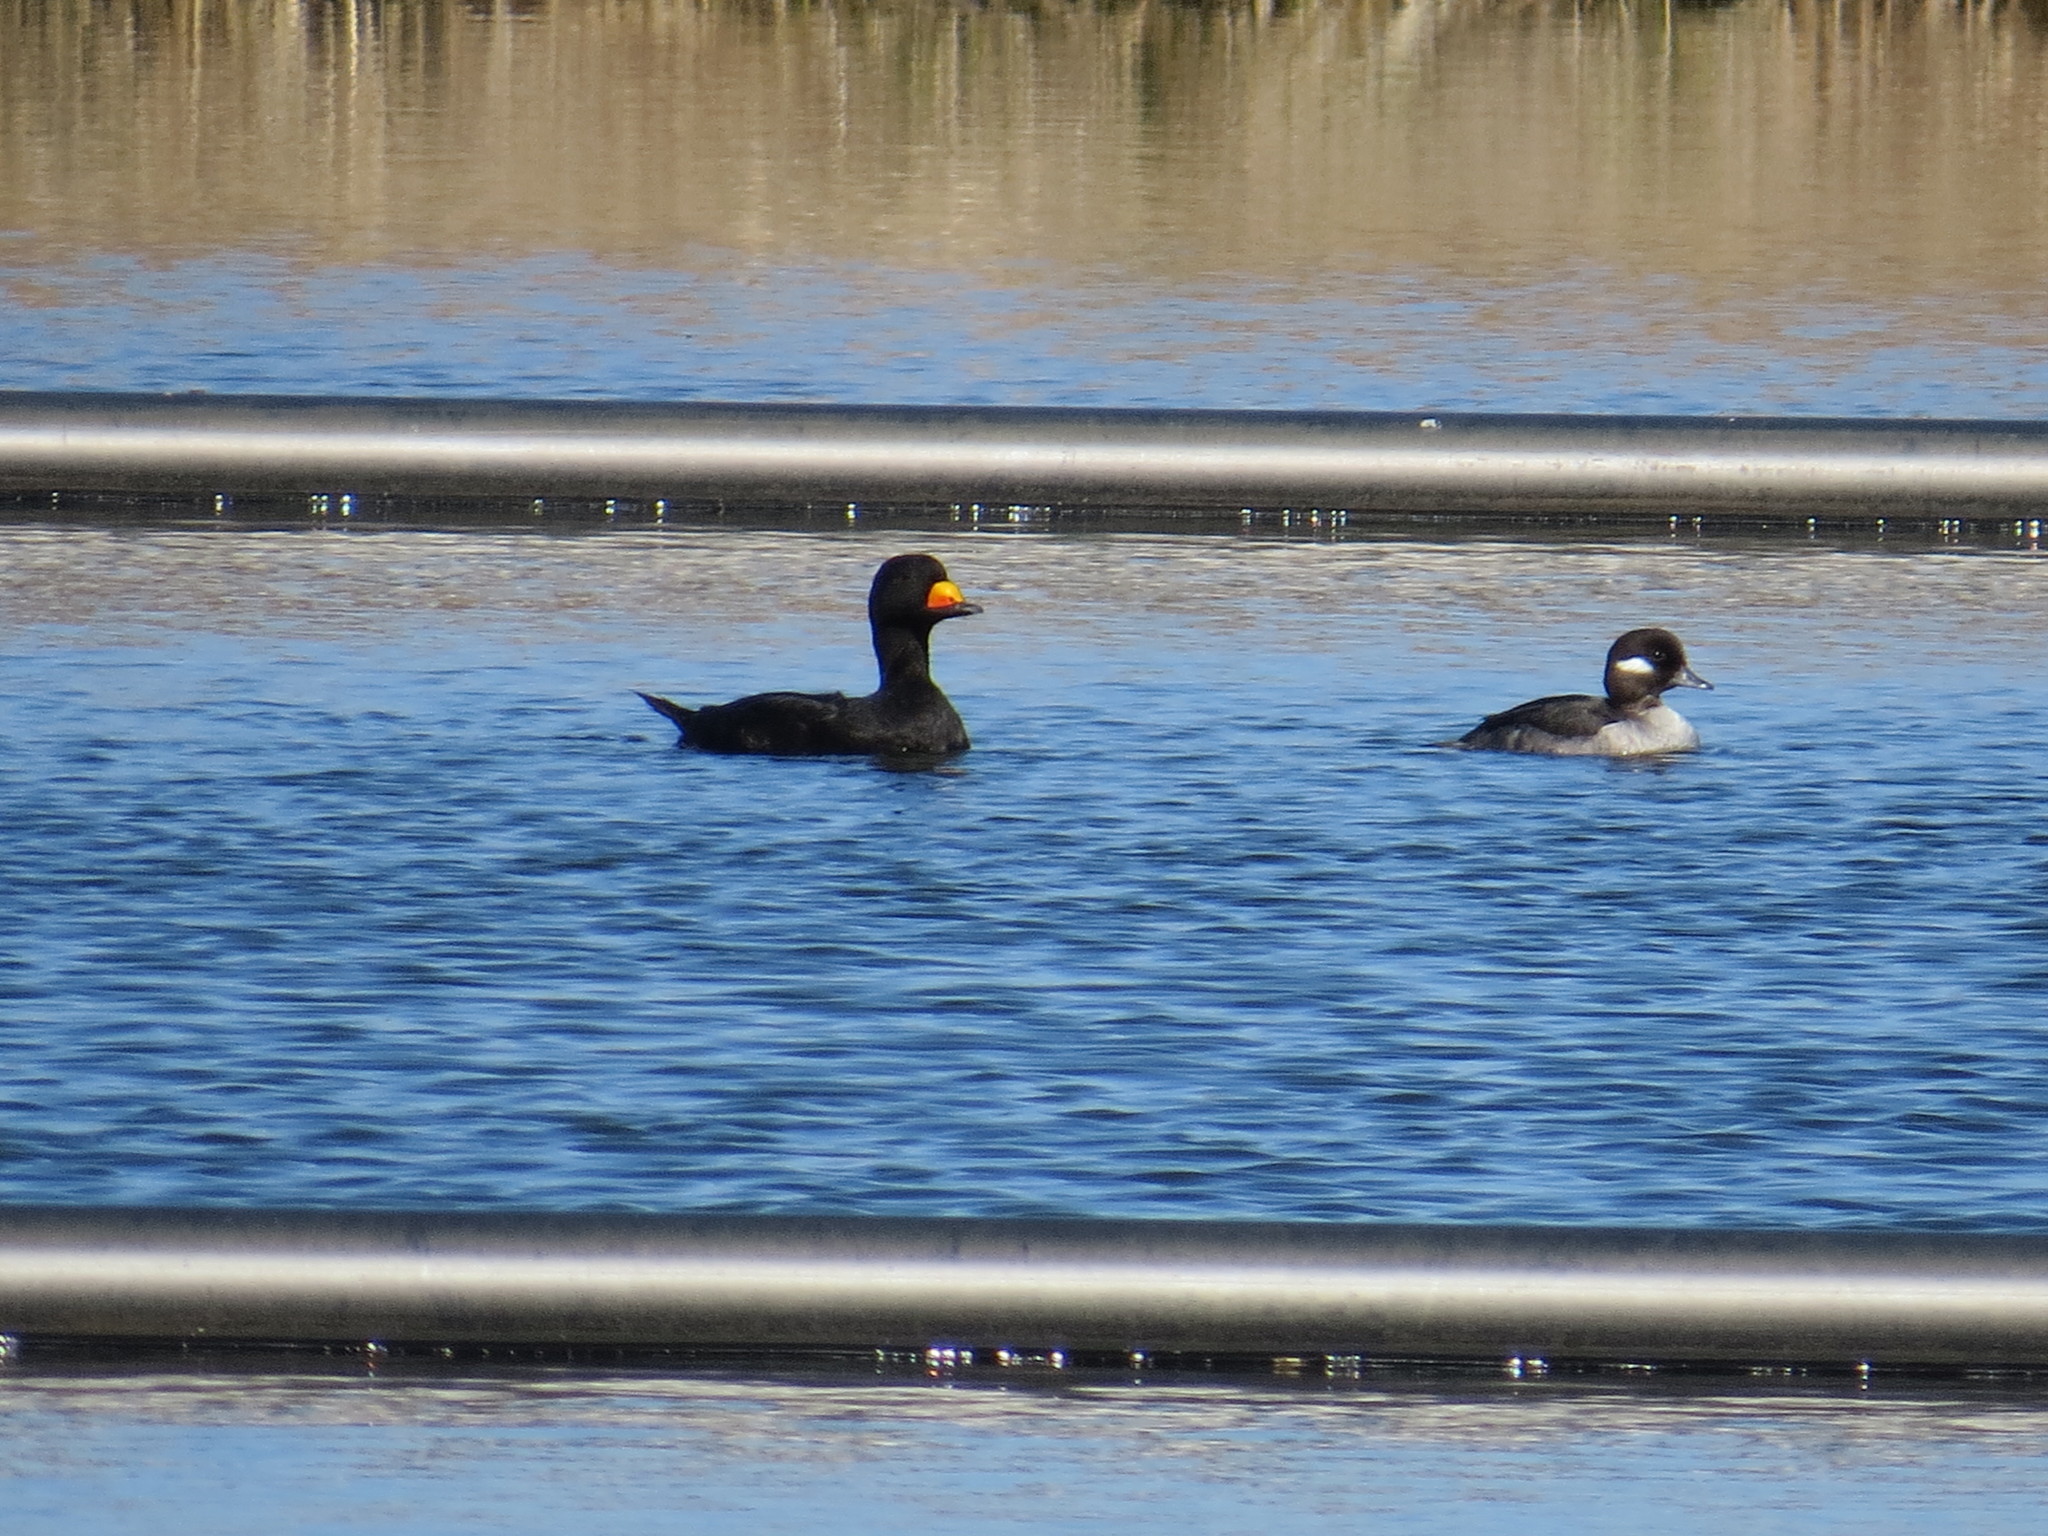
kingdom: Animalia
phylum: Chordata
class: Aves
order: Anseriformes
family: Anatidae
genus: Melanitta
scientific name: Melanitta americana
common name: Black scoter
